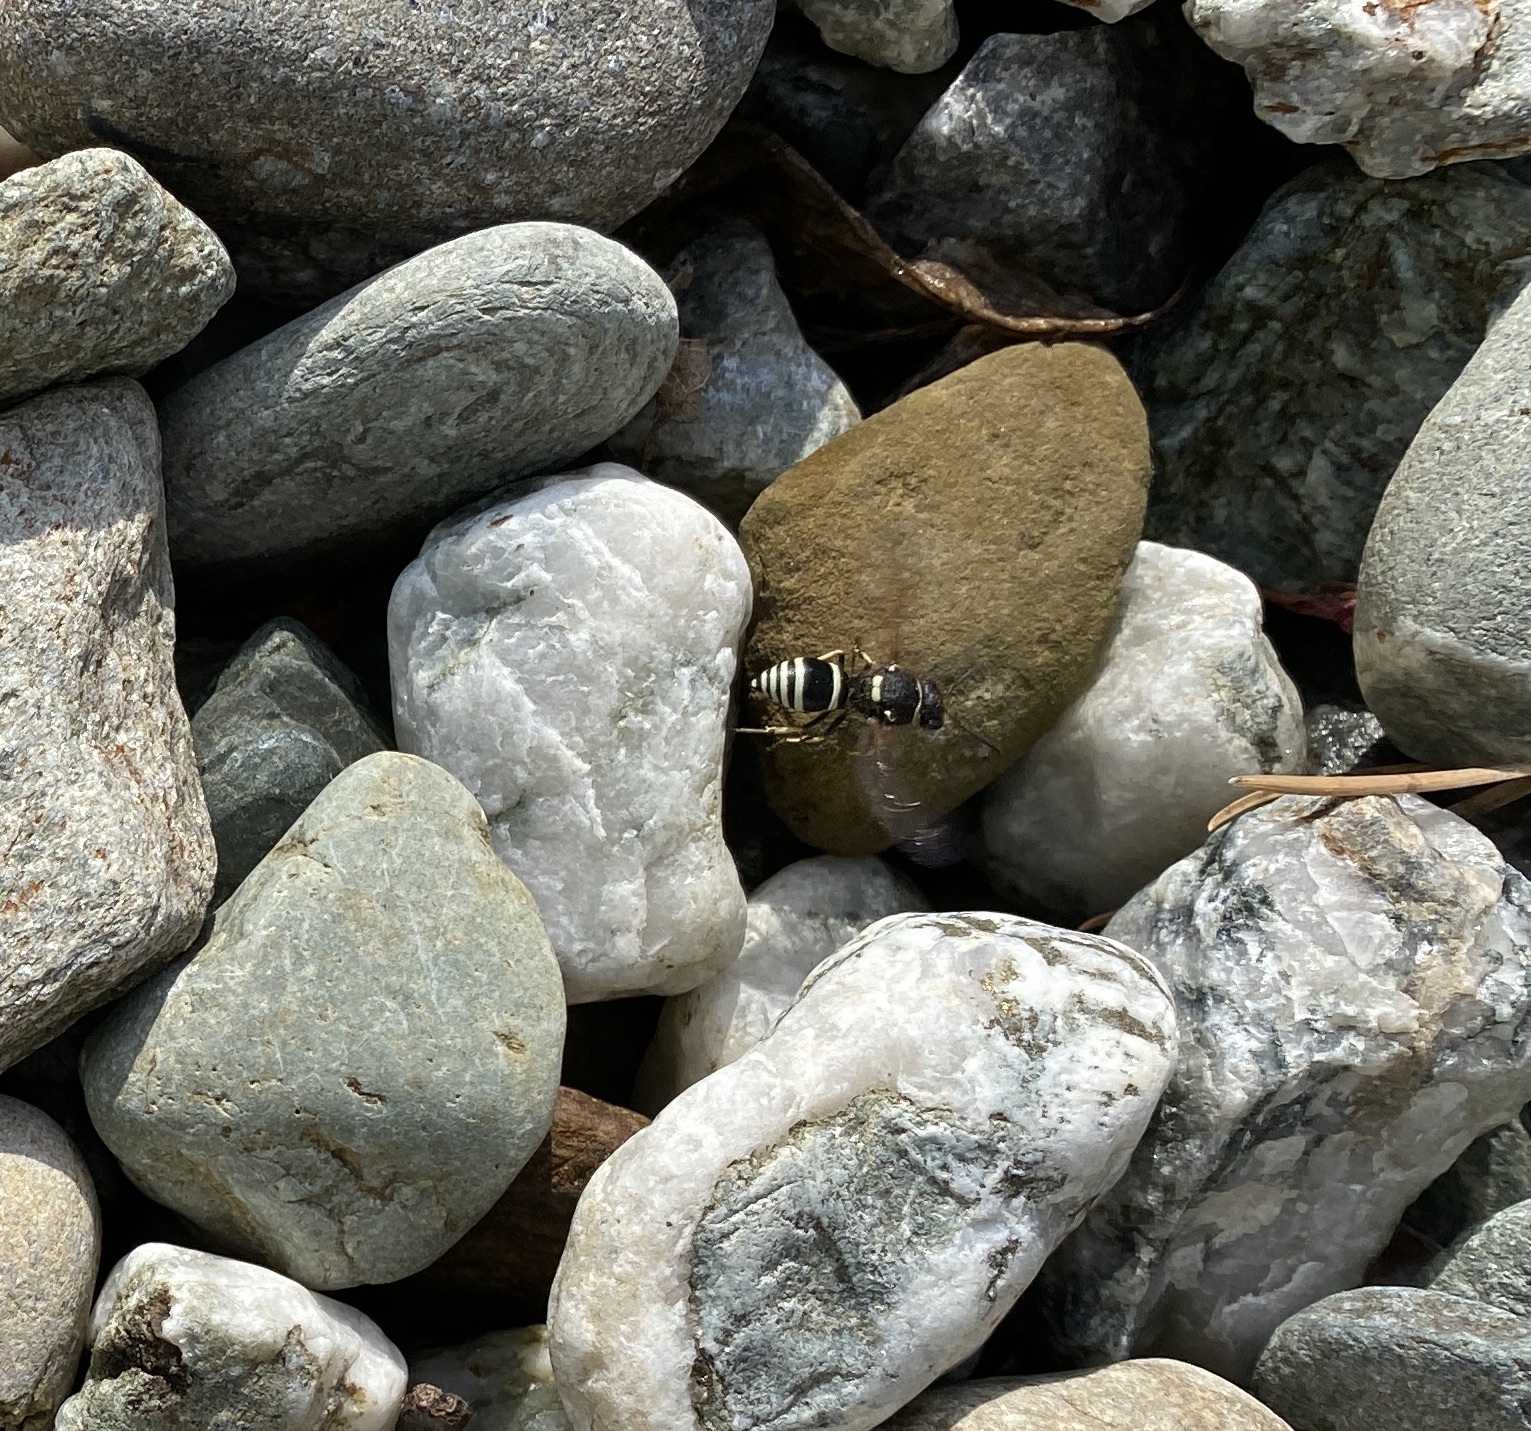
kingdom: Animalia
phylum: Arthropoda
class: Insecta
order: Hymenoptera
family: Vespidae
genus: Ancistrocerus
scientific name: Ancistrocerus waldenii
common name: Walden’s potter wasp
